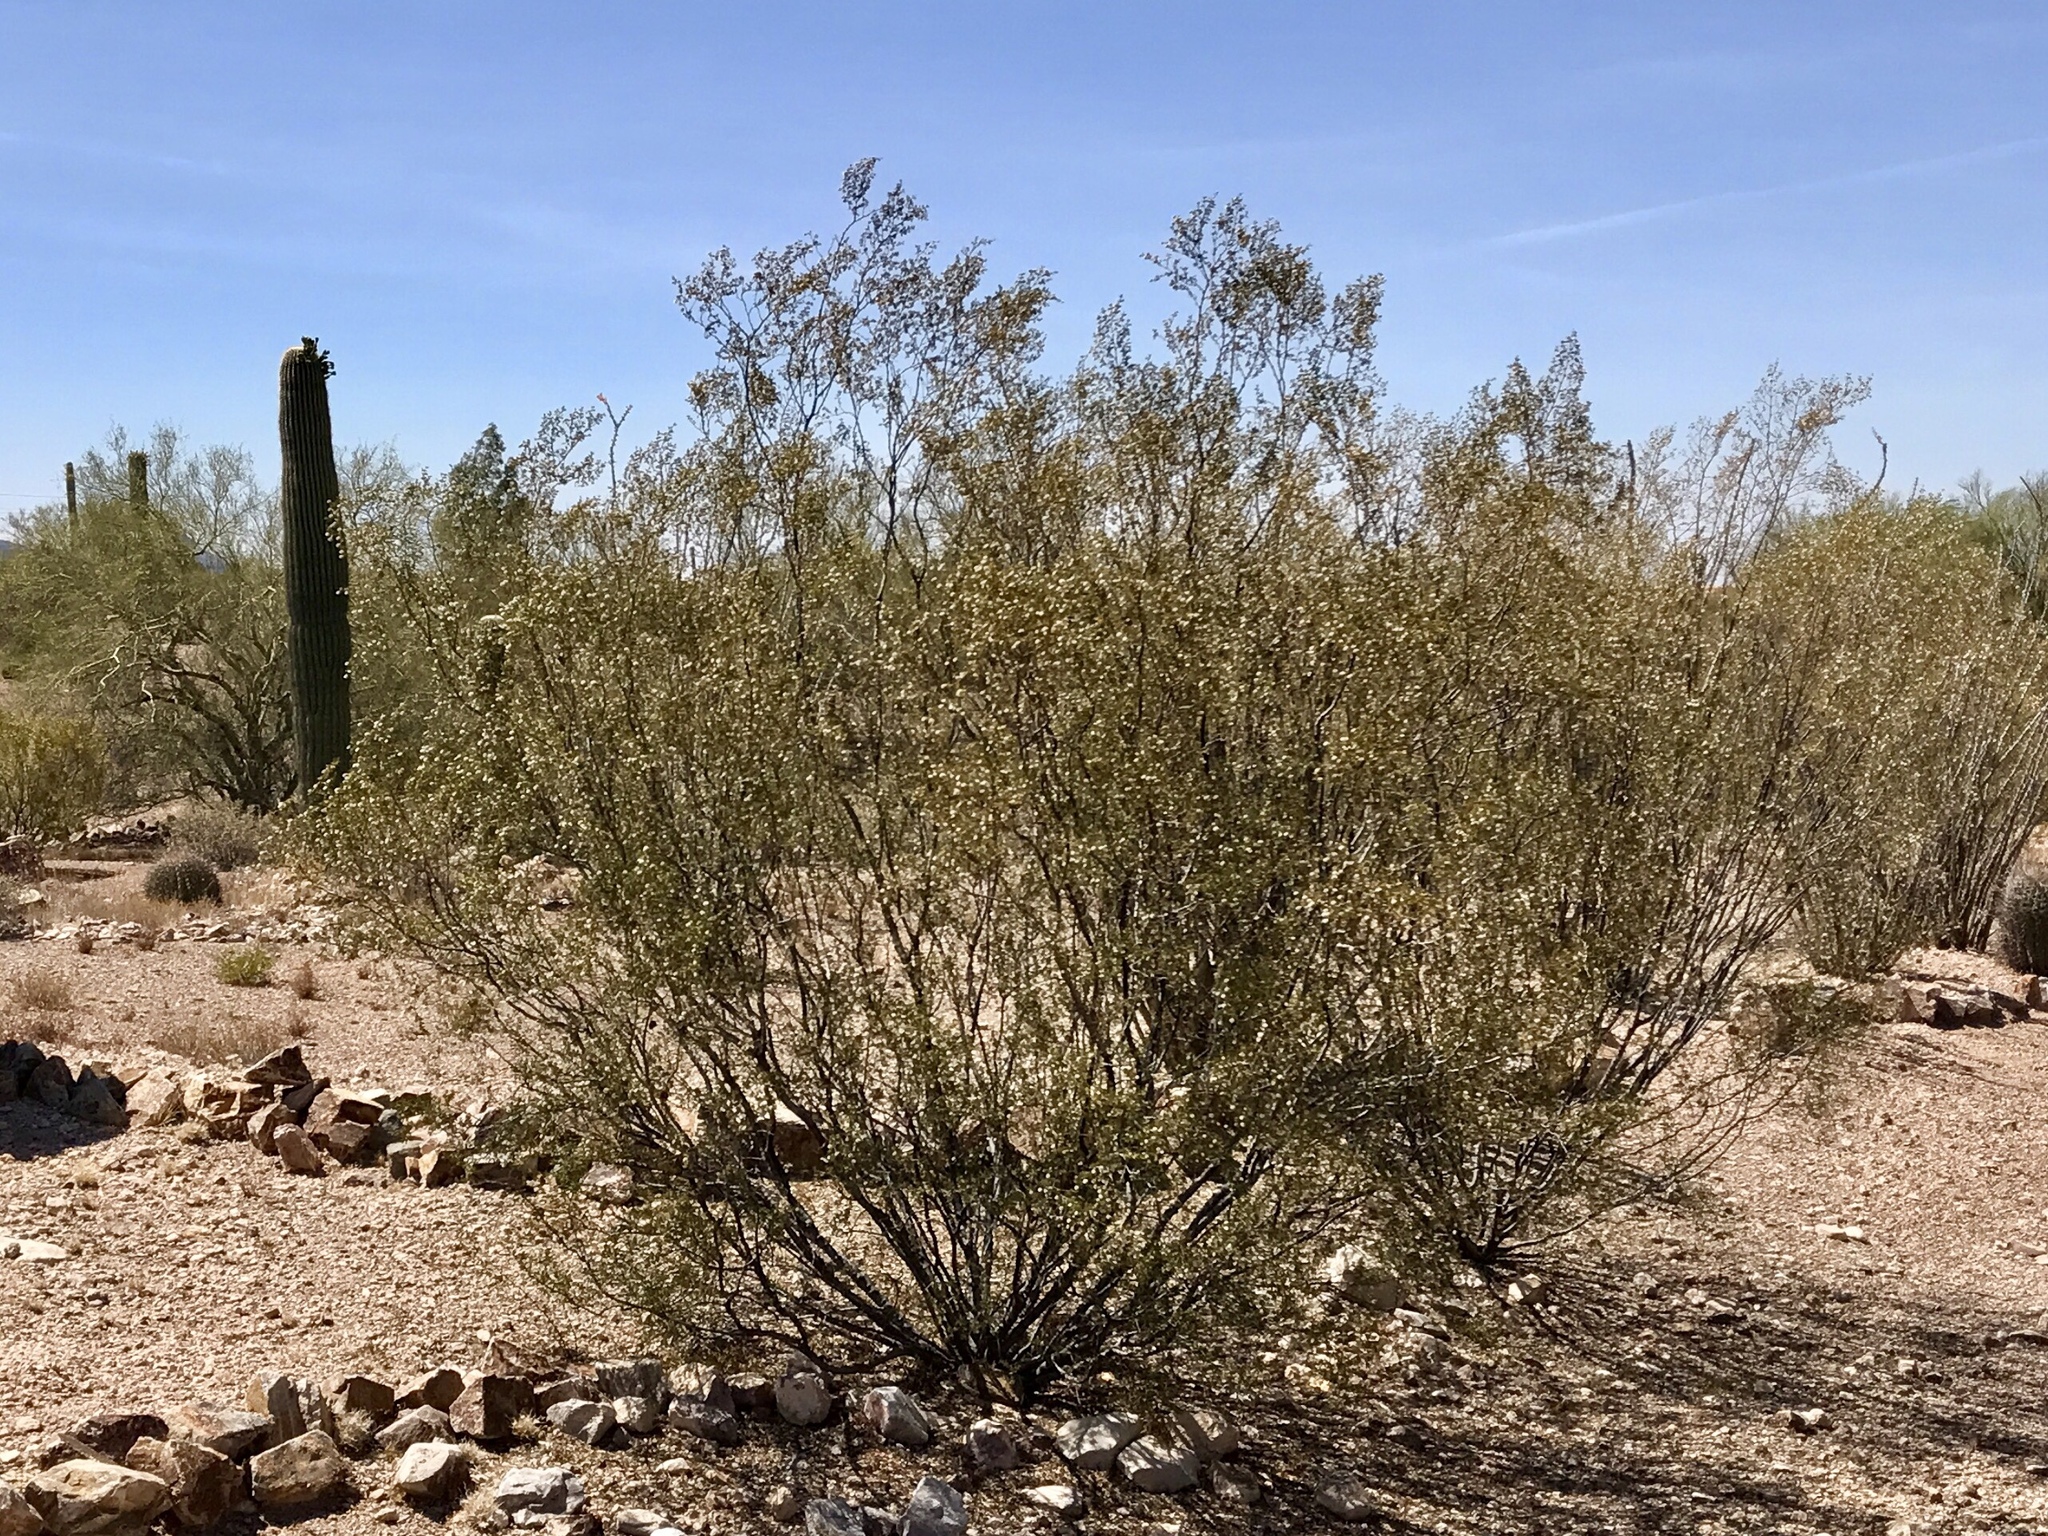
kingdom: Plantae
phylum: Tracheophyta
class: Magnoliopsida
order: Zygophyllales
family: Zygophyllaceae
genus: Larrea
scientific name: Larrea tridentata
